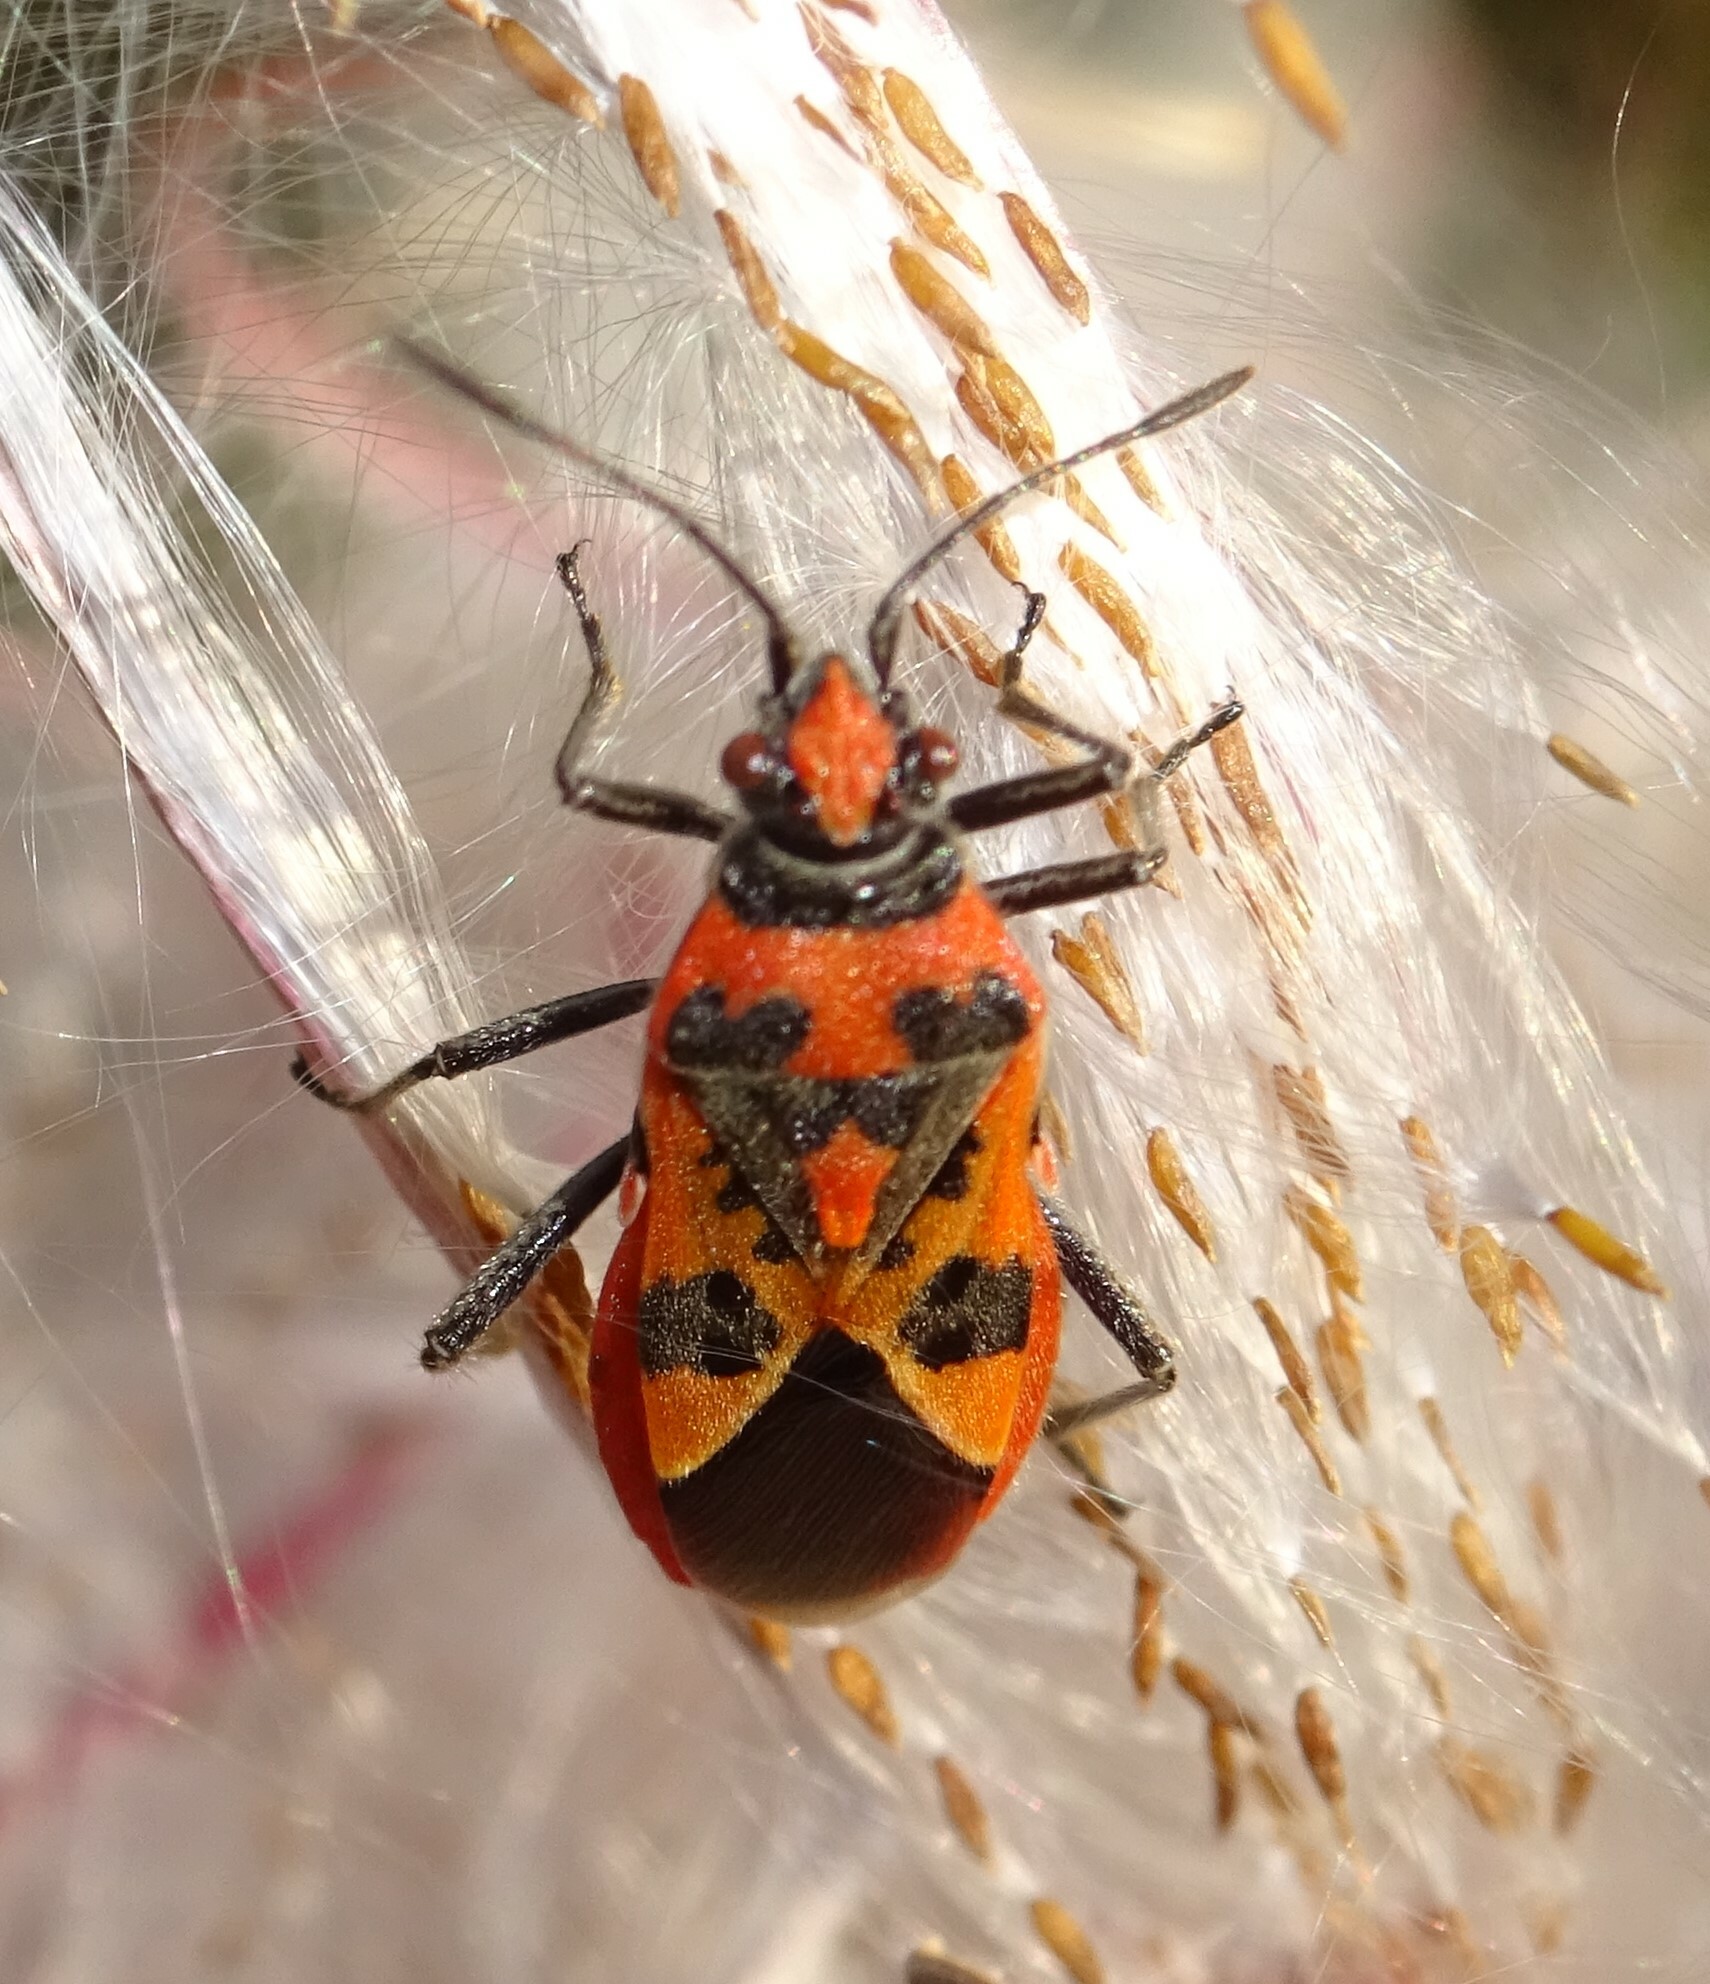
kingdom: Animalia
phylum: Arthropoda
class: Insecta
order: Hemiptera
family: Rhopalidae
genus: Corizus
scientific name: Corizus hyoscyami
